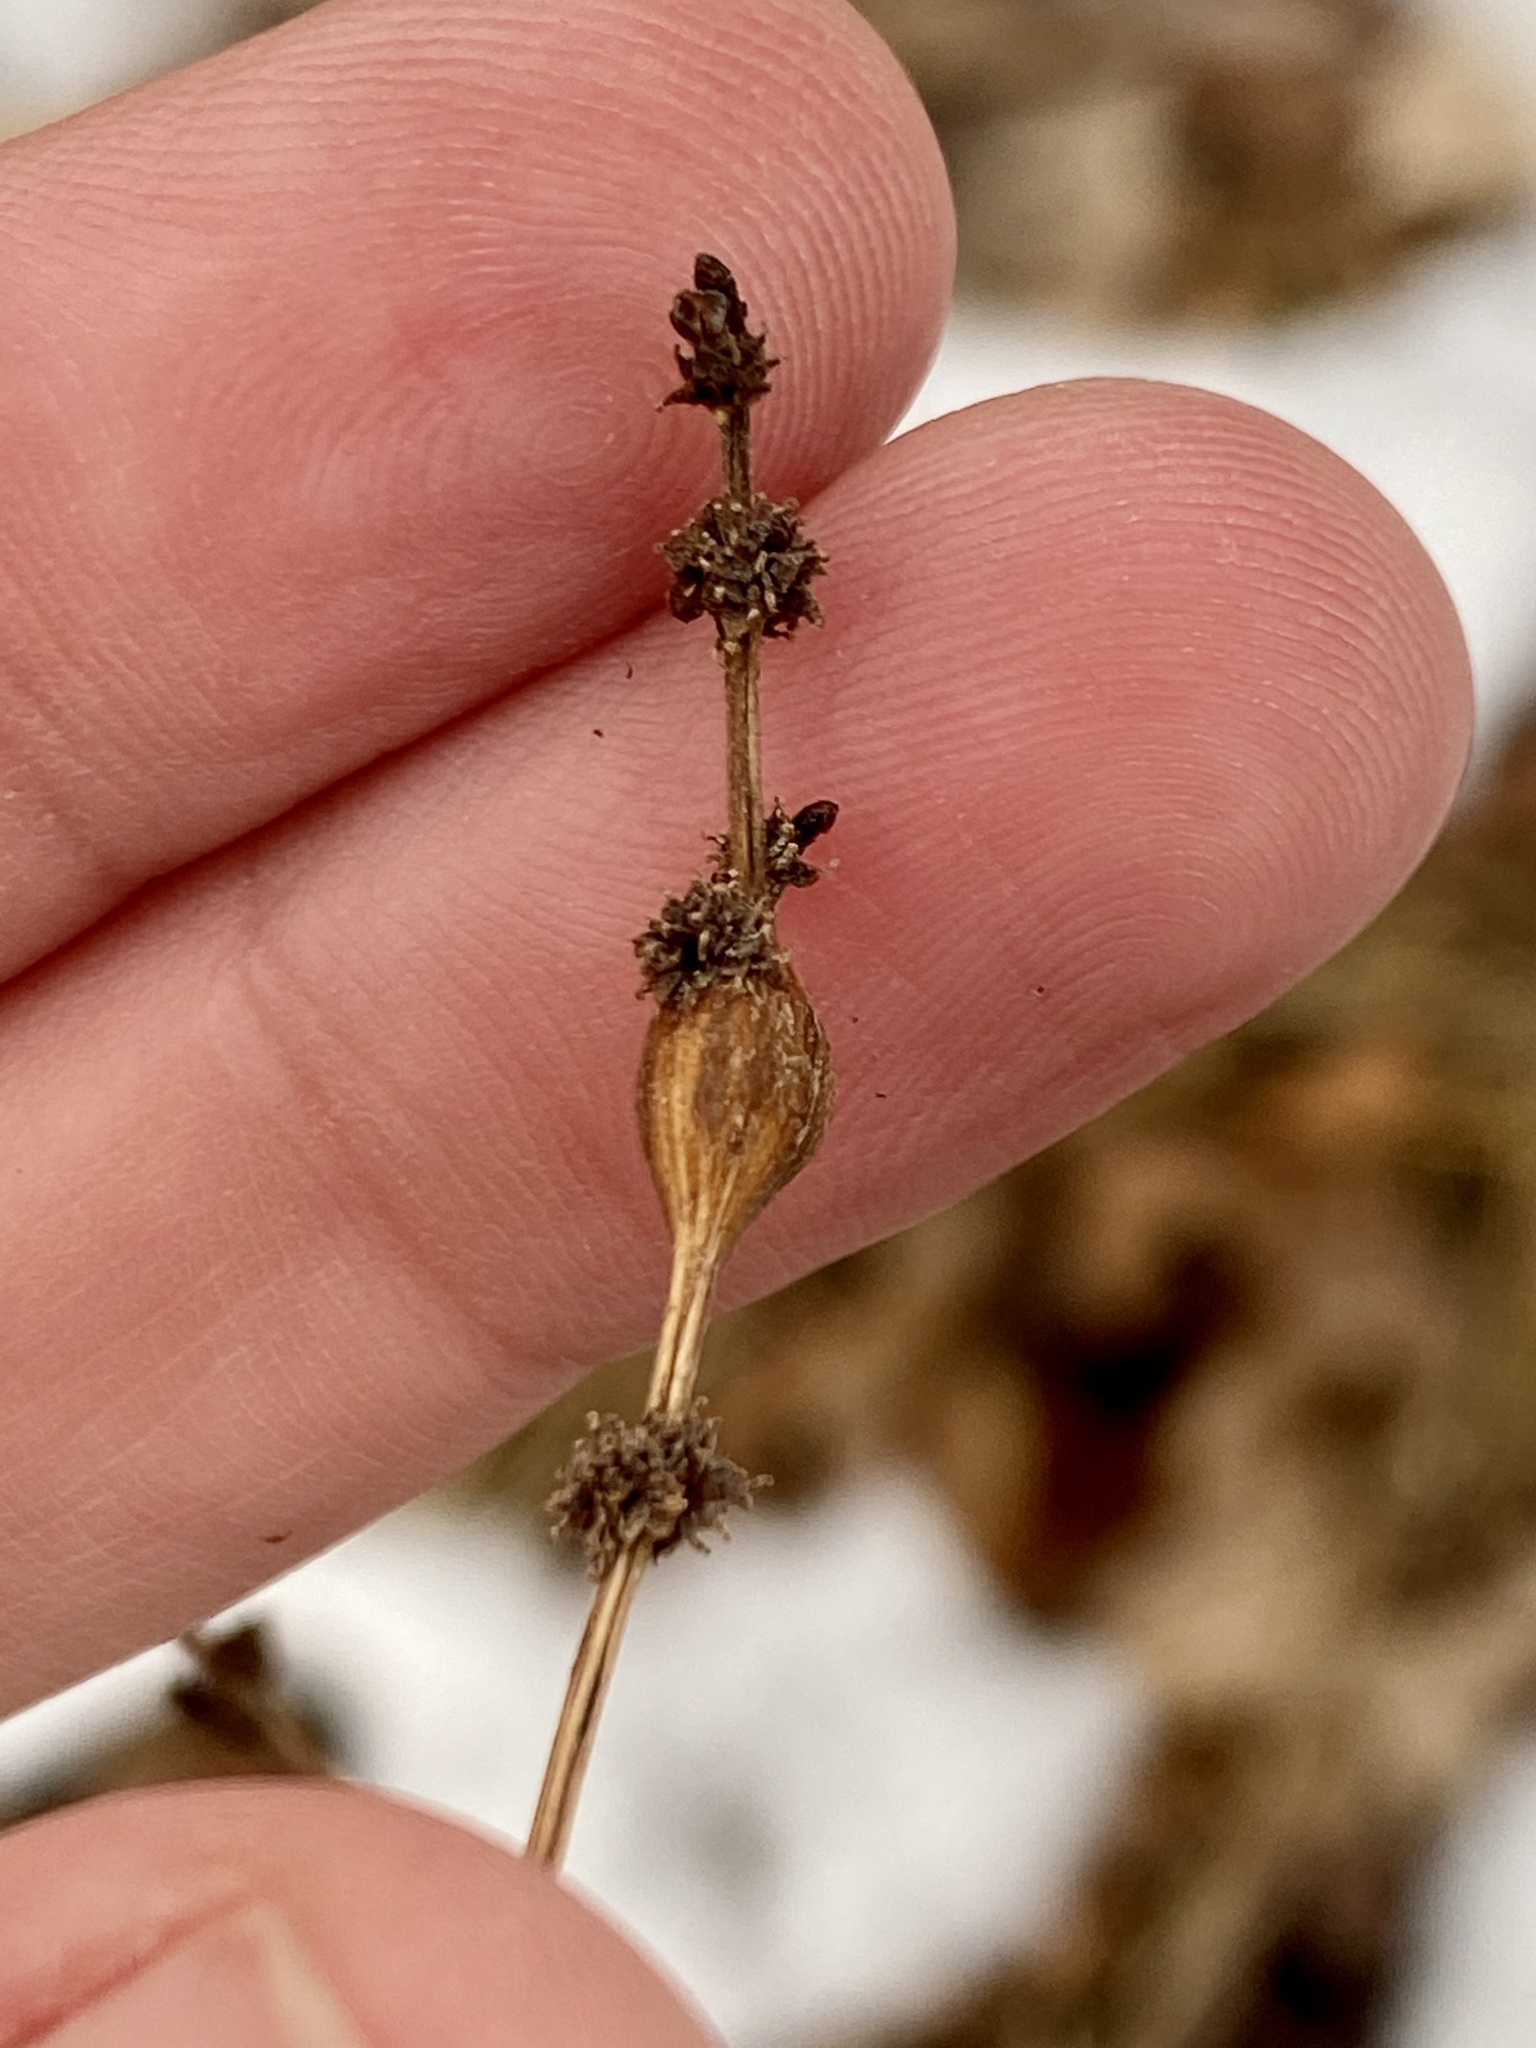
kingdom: Animalia
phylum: Arthropoda
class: Insecta
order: Diptera
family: Cecidomyiidae
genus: Neolasioptera
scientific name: Neolasioptera boehmeriae
